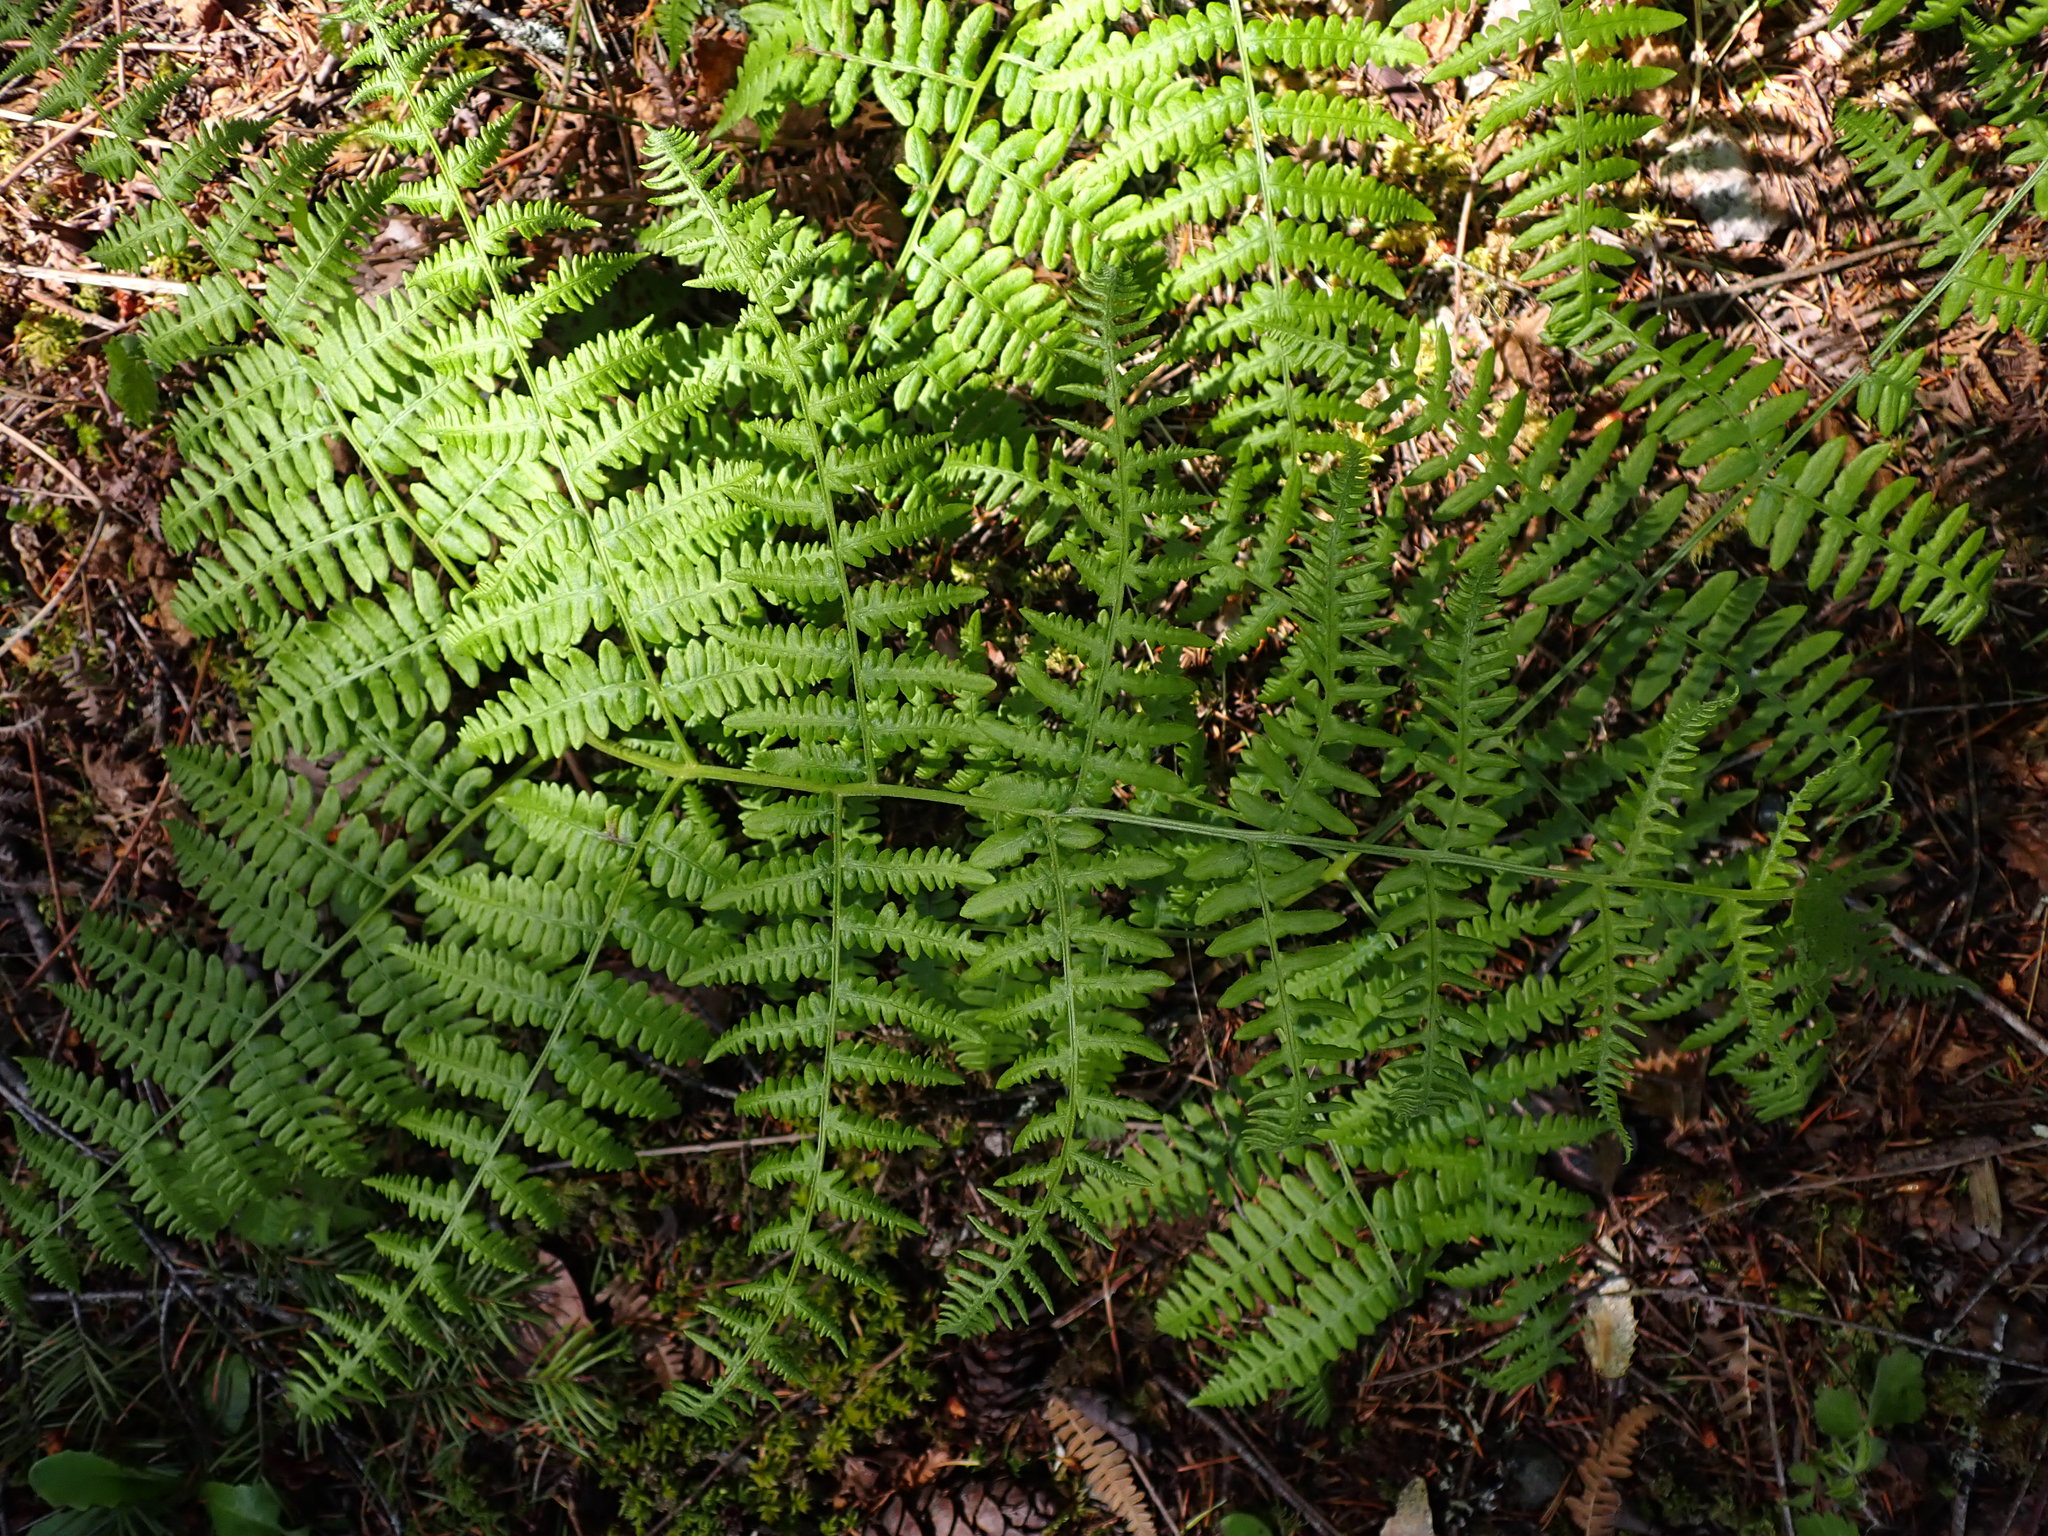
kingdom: Plantae
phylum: Tracheophyta
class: Polypodiopsida
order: Polypodiales
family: Dennstaedtiaceae
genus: Pteridium
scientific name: Pteridium aquilinum
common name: Bracken
